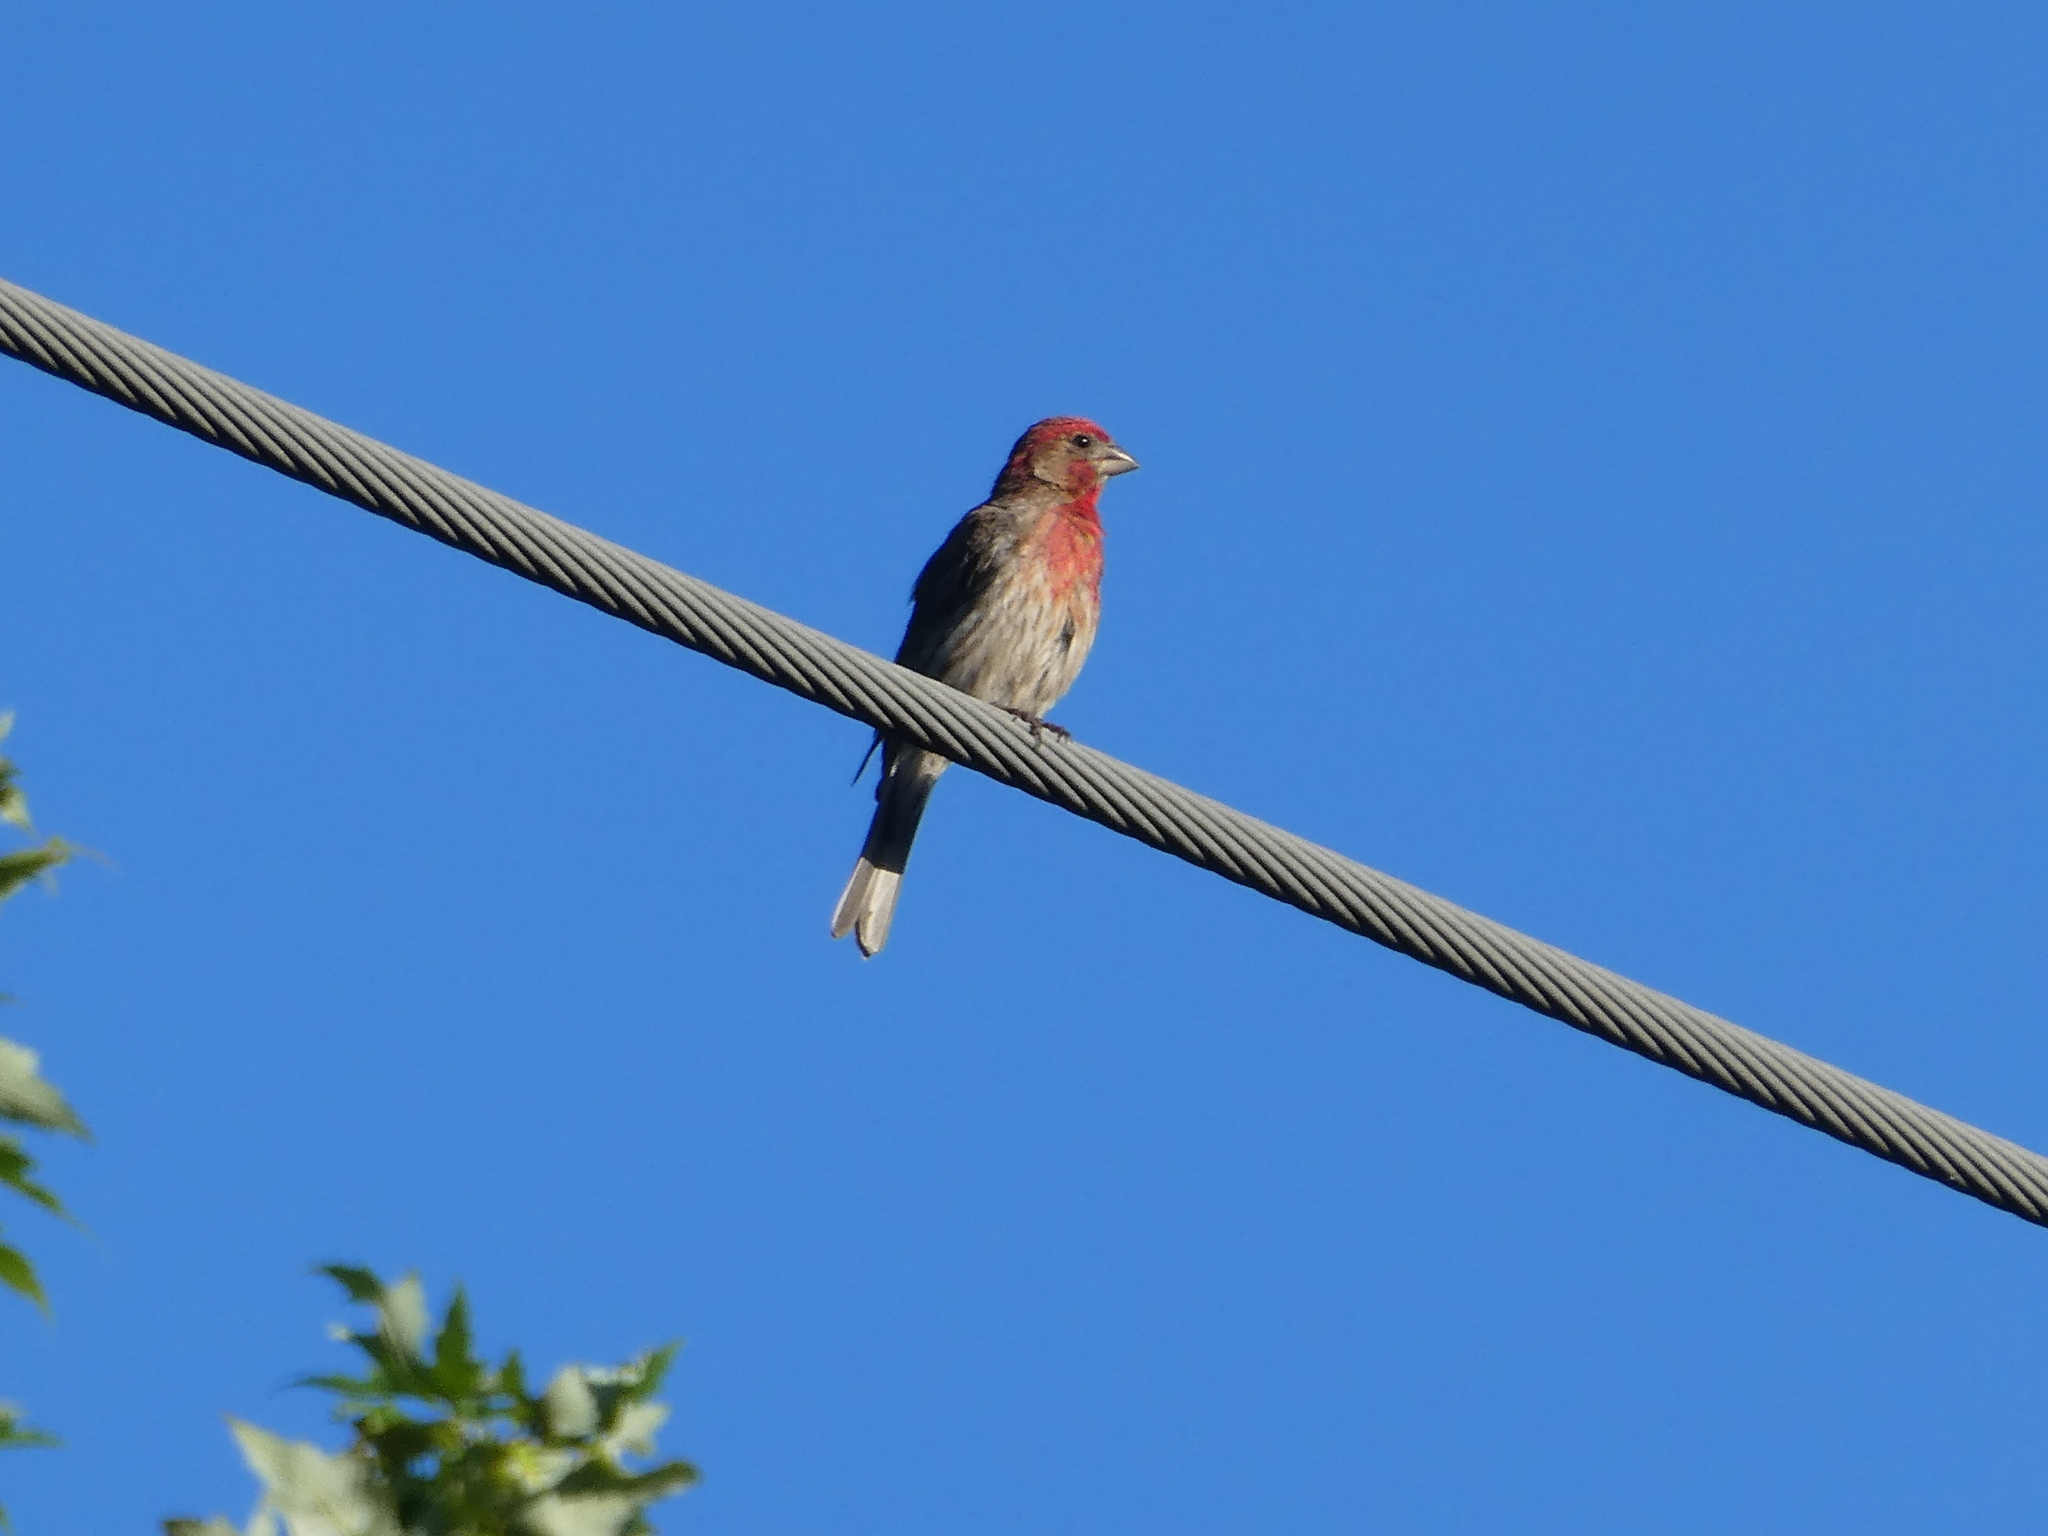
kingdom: Animalia
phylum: Chordata
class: Aves
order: Passeriformes
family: Fringillidae
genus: Haemorhous
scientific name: Haemorhous mexicanus
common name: House finch
